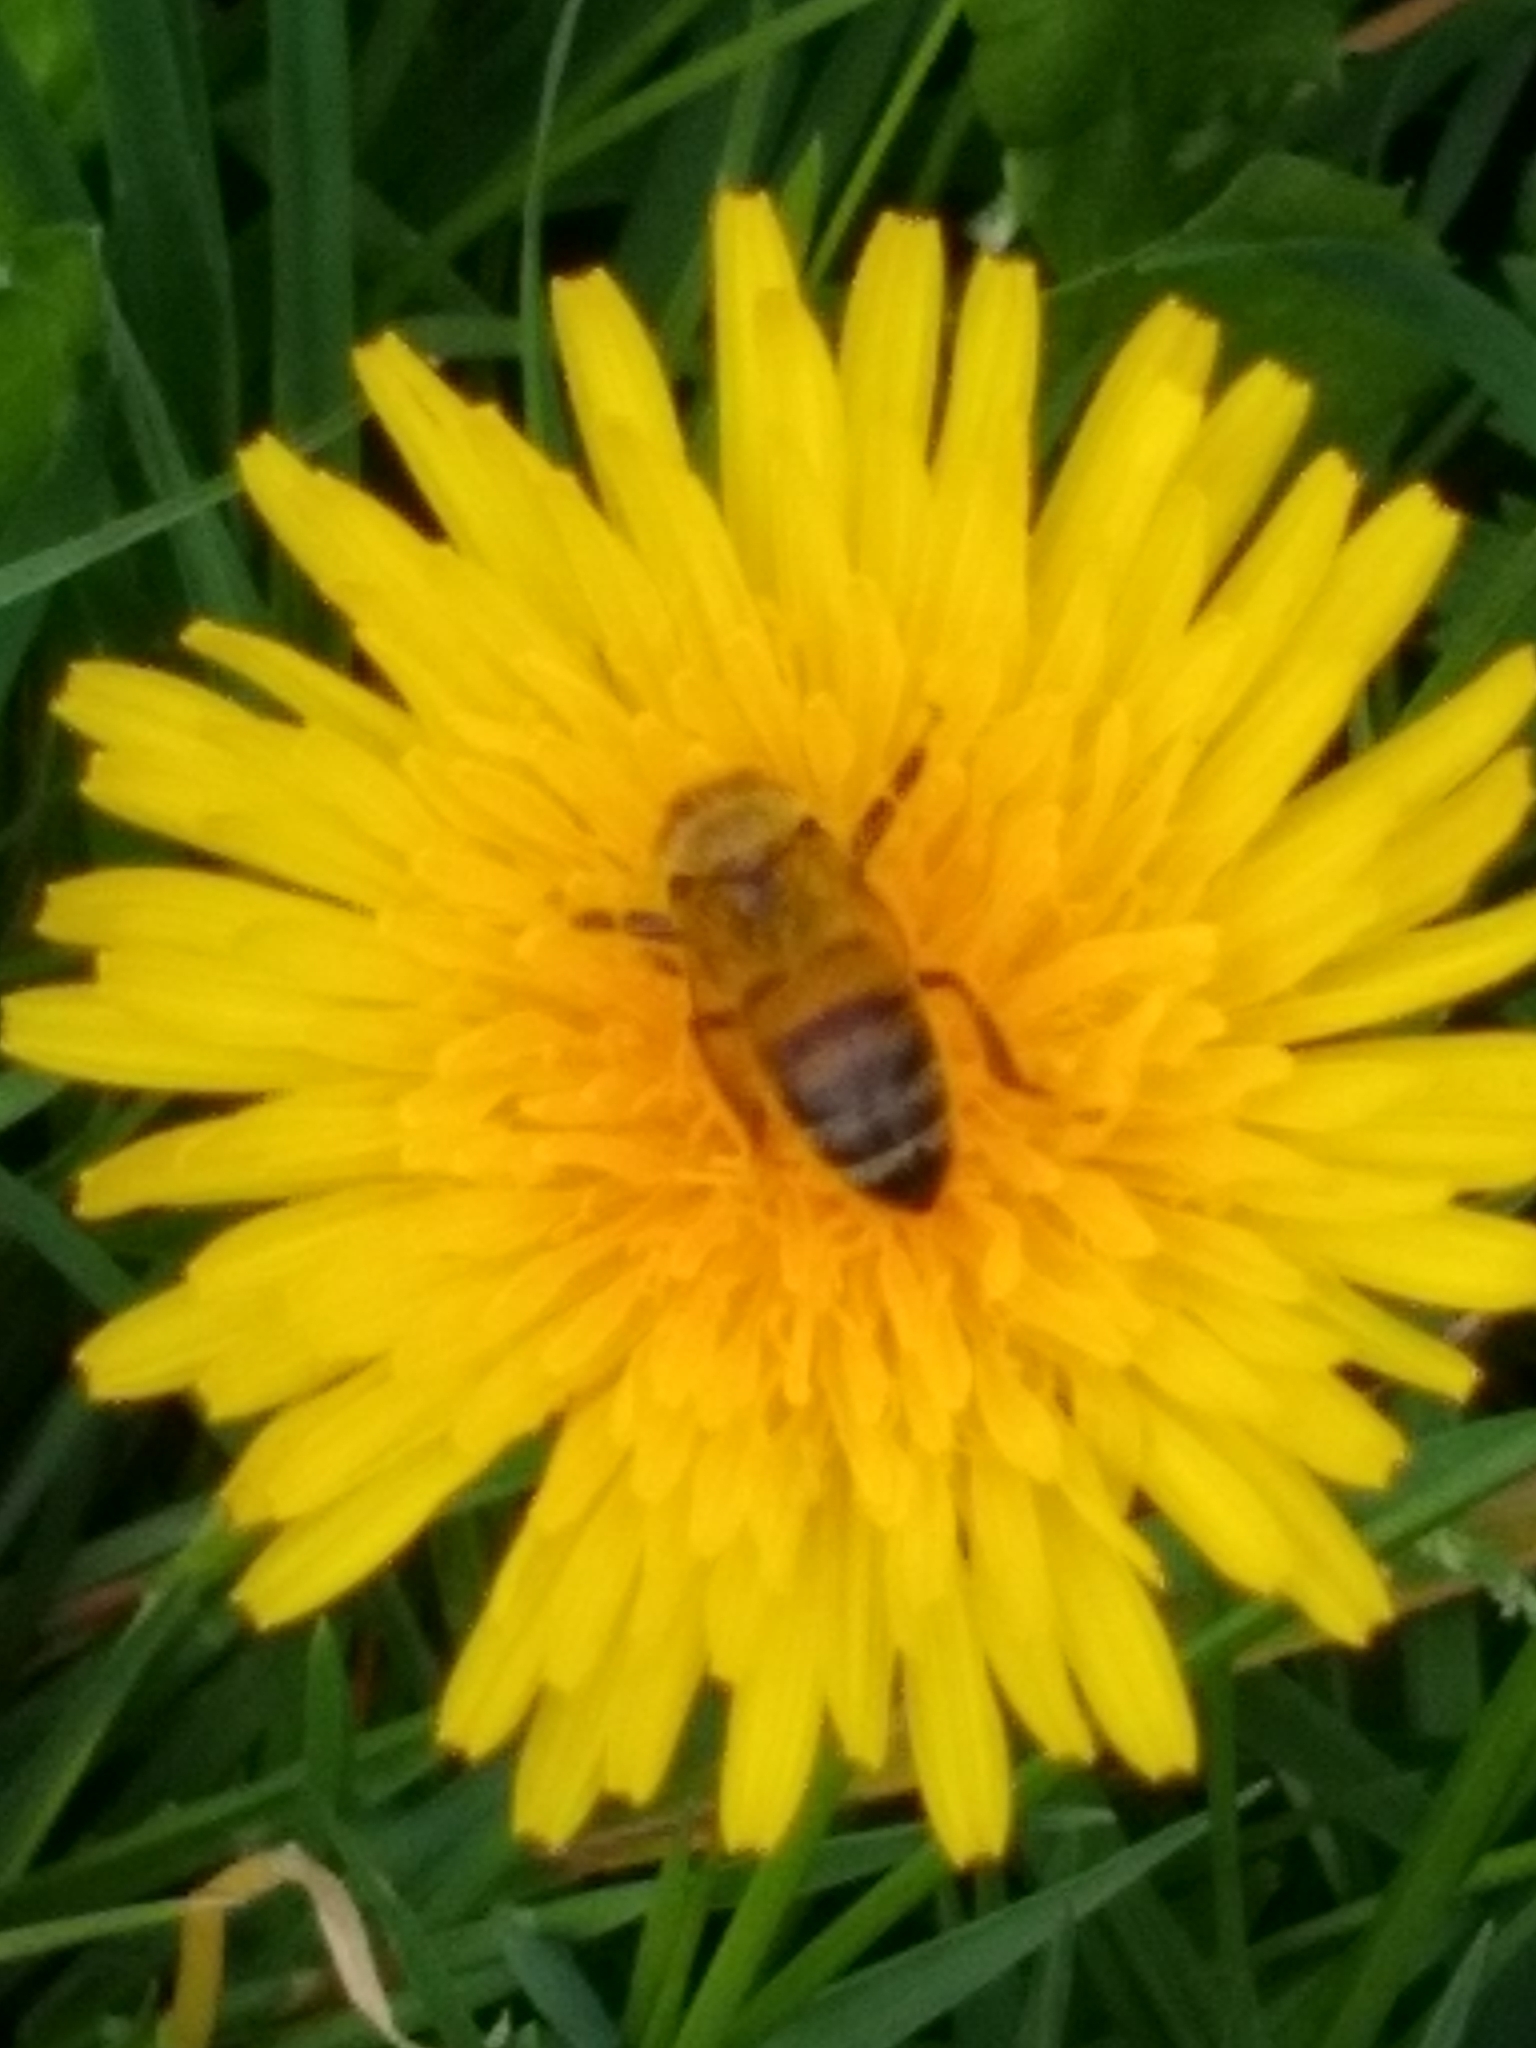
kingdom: Animalia
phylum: Arthropoda
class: Insecta
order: Hymenoptera
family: Apidae
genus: Apis
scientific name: Apis mellifera
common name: Honey bee
